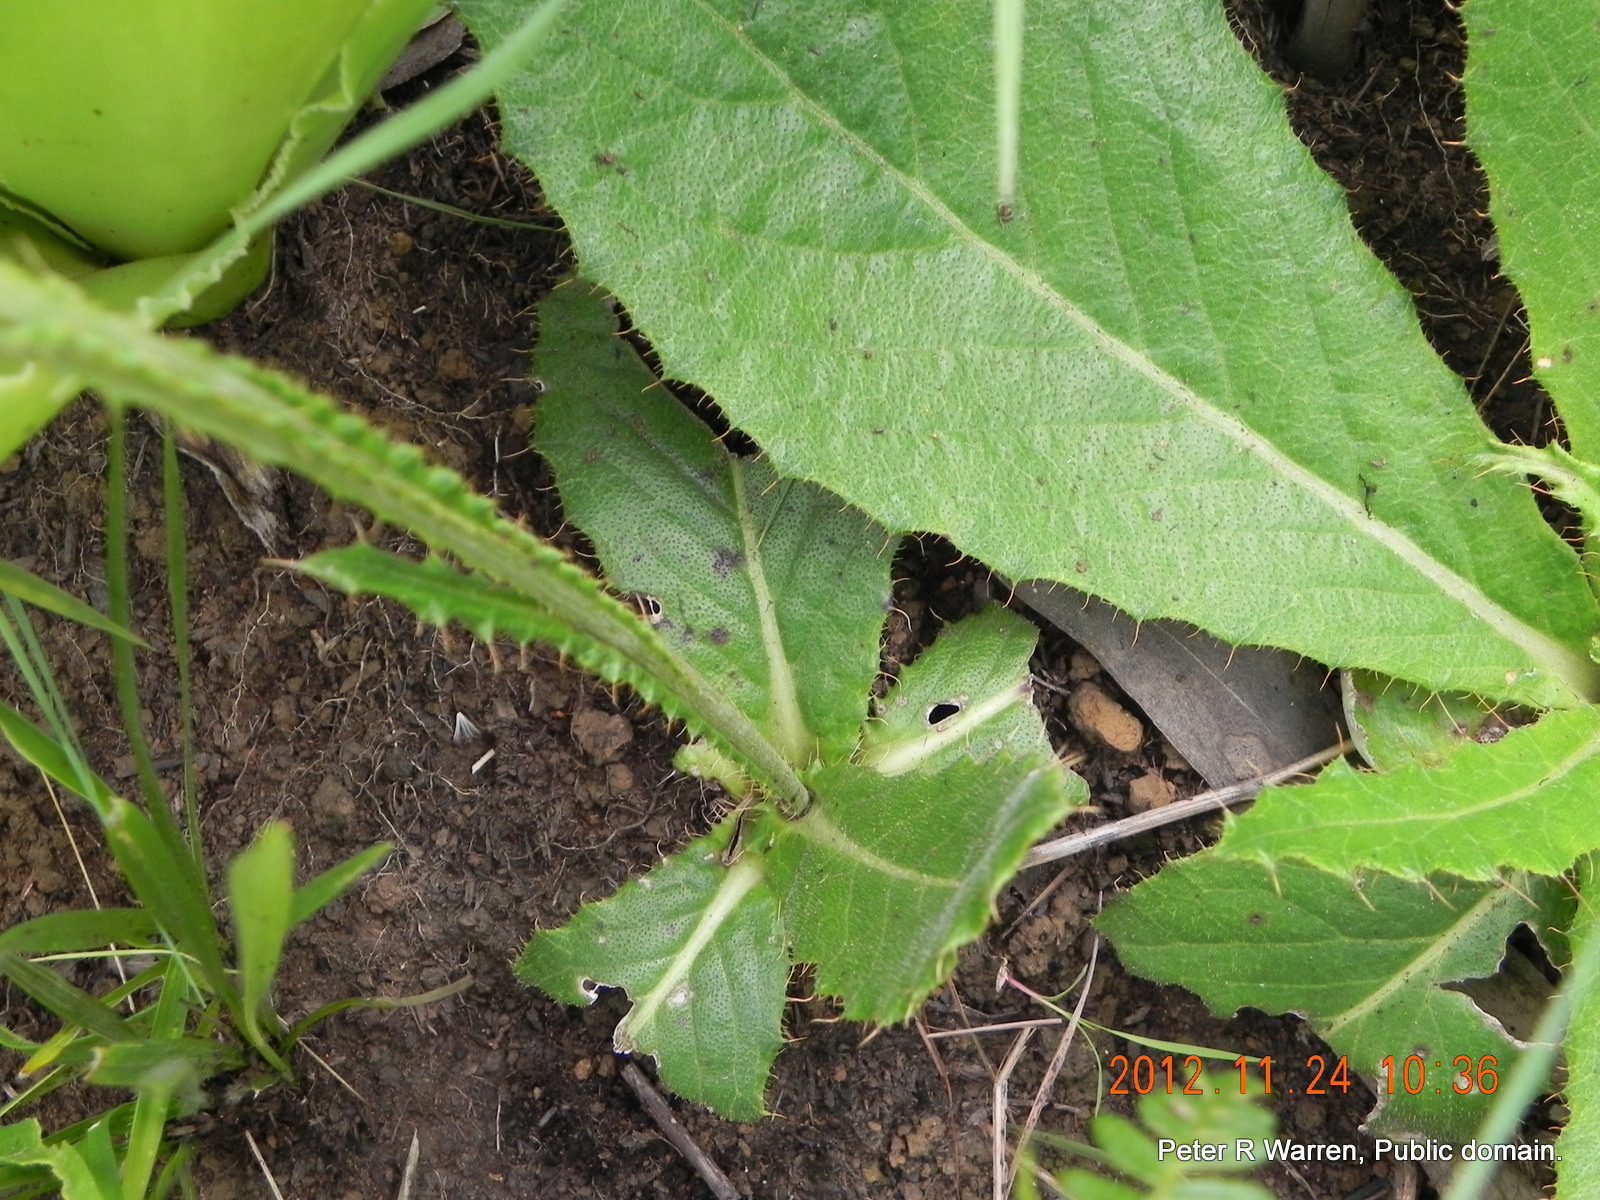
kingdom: Plantae
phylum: Tracheophyta
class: Magnoliopsida
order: Asterales
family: Asteraceae
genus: Berkheya
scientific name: Berkheya rhapontica
